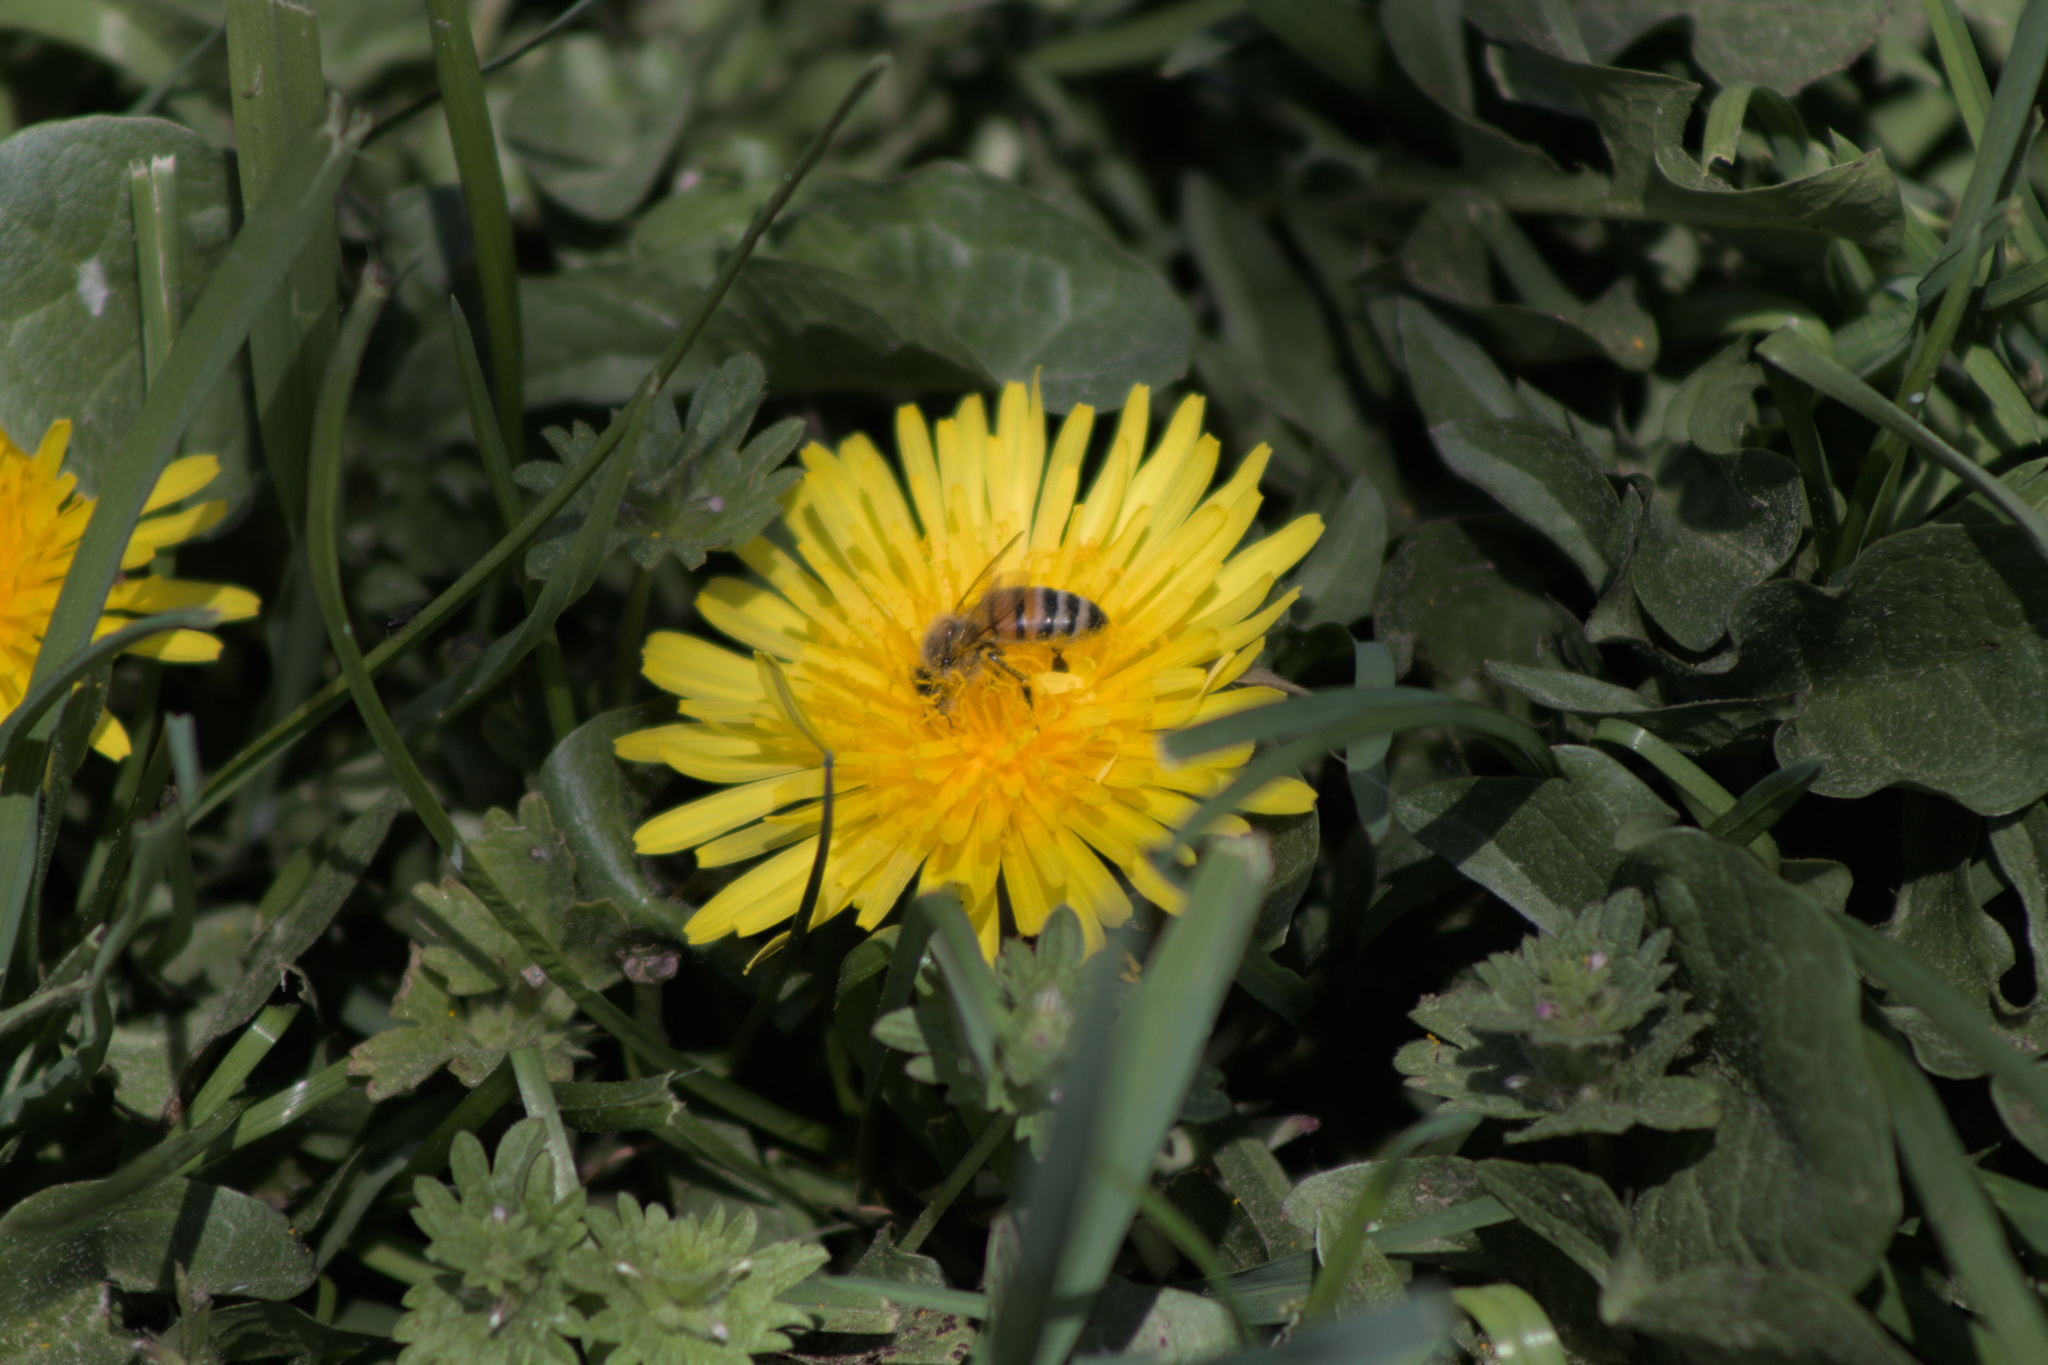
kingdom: Animalia
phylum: Arthropoda
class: Insecta
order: Hymenoptera
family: Apidae
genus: Apis
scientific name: Apis mellifera
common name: Honey bee
